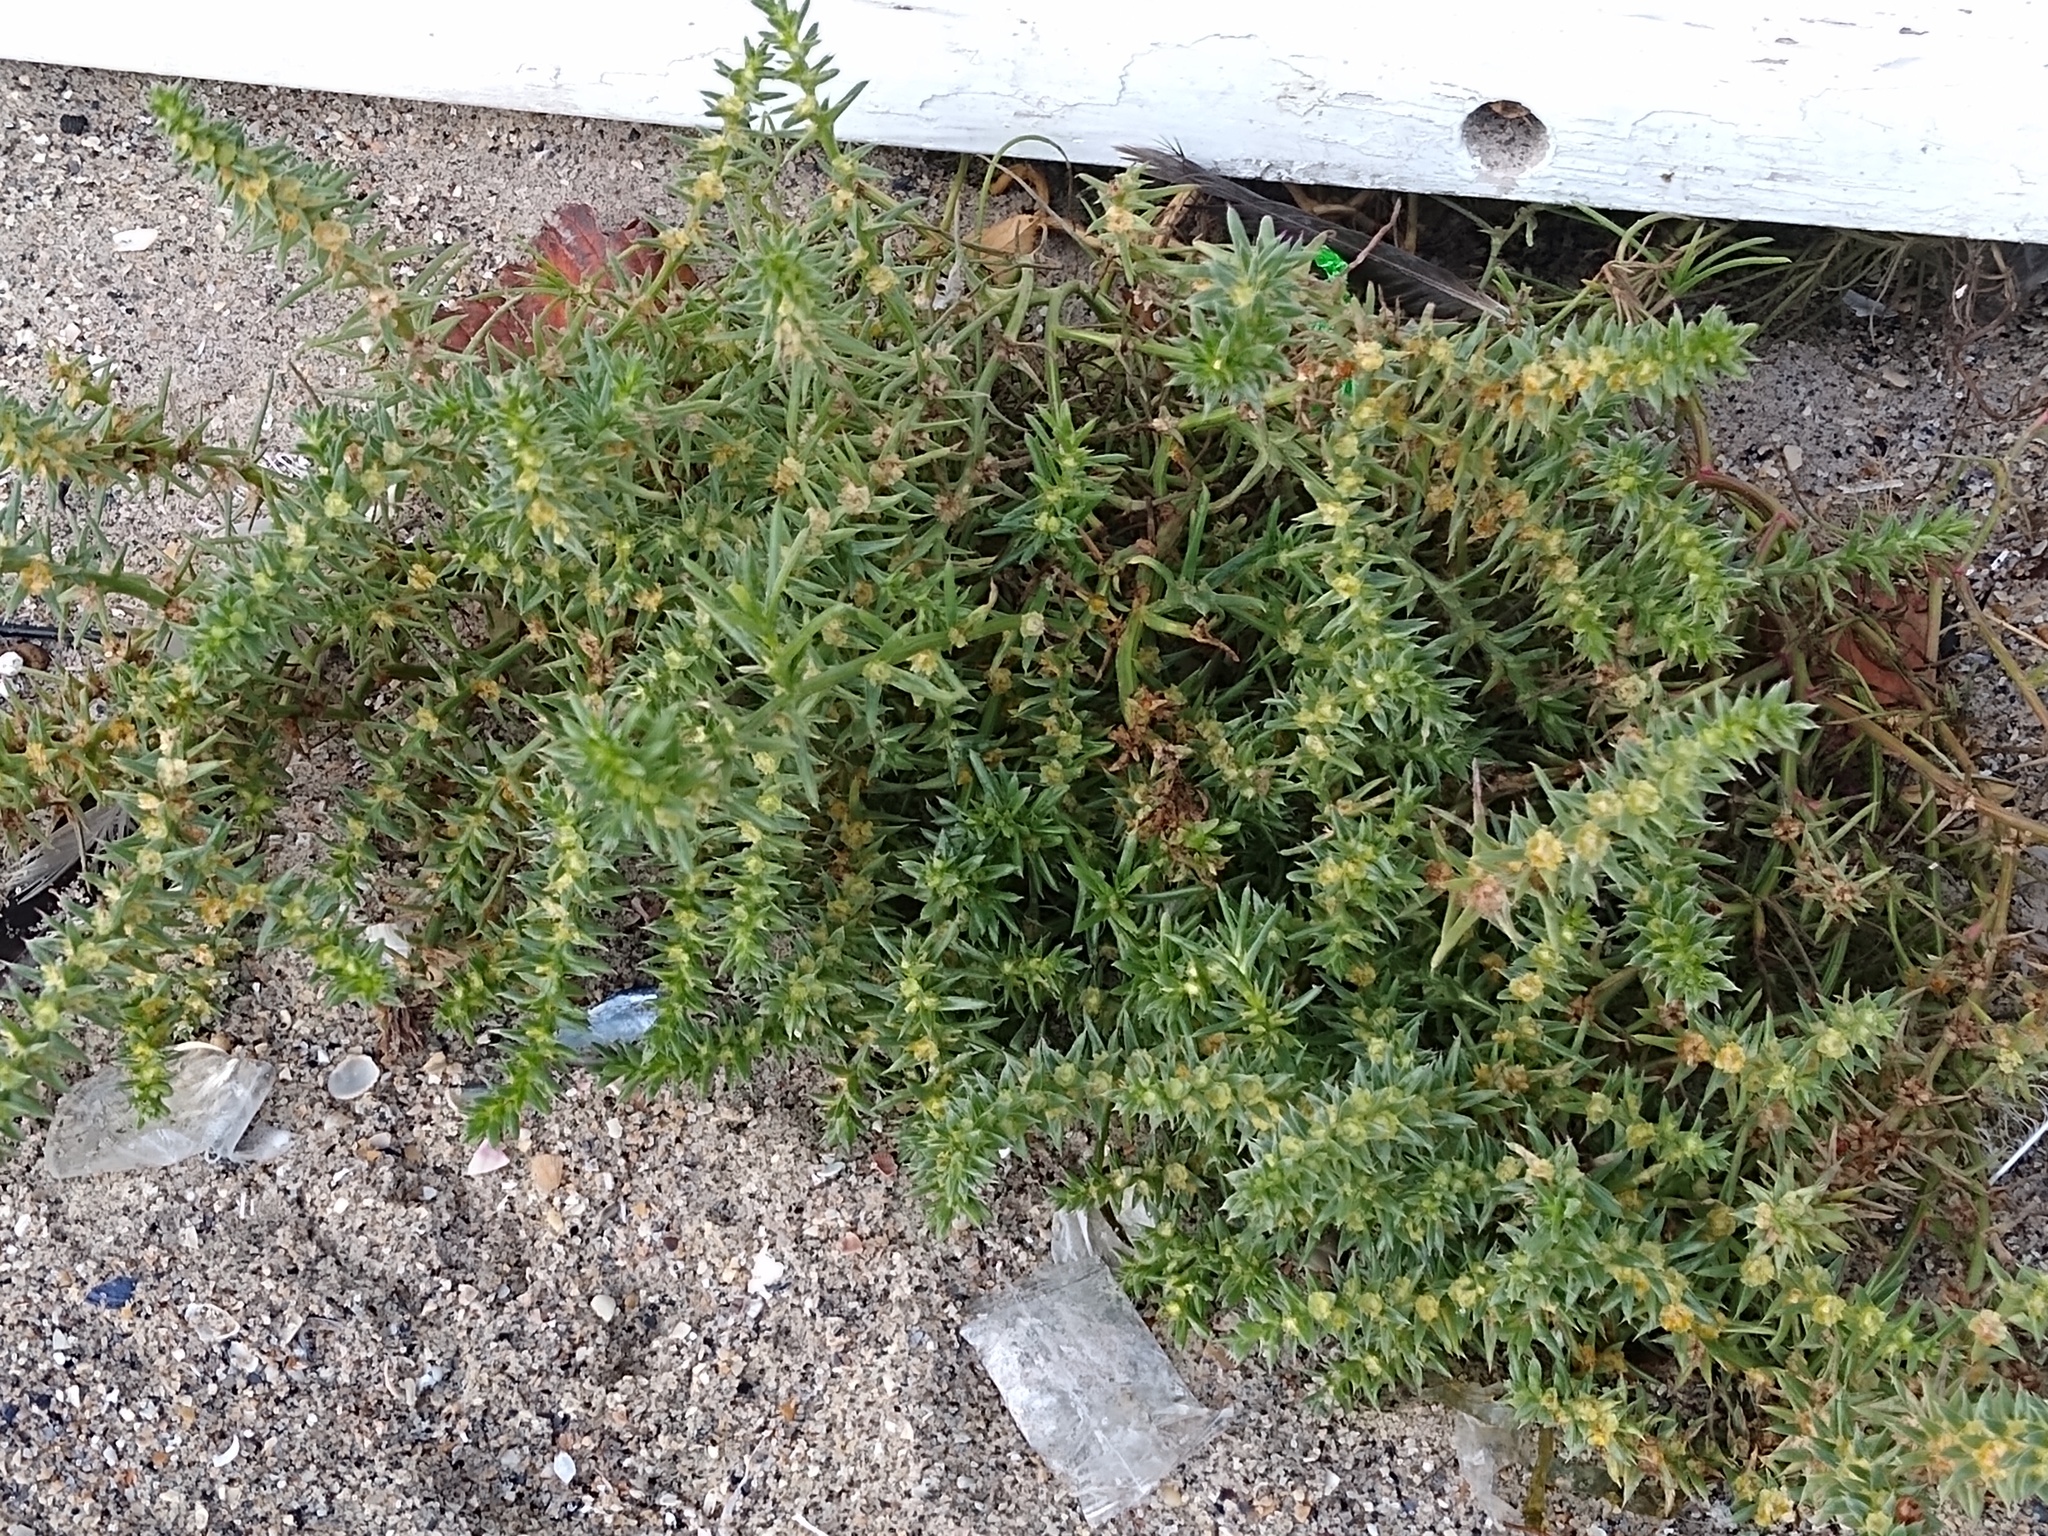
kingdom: Plantae
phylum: Tracheophyta
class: Magnoliopsida
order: Caryophyllales
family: Amaranthaceae
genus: Salsola
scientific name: Salsola tragus
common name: Prickly russian thistle
